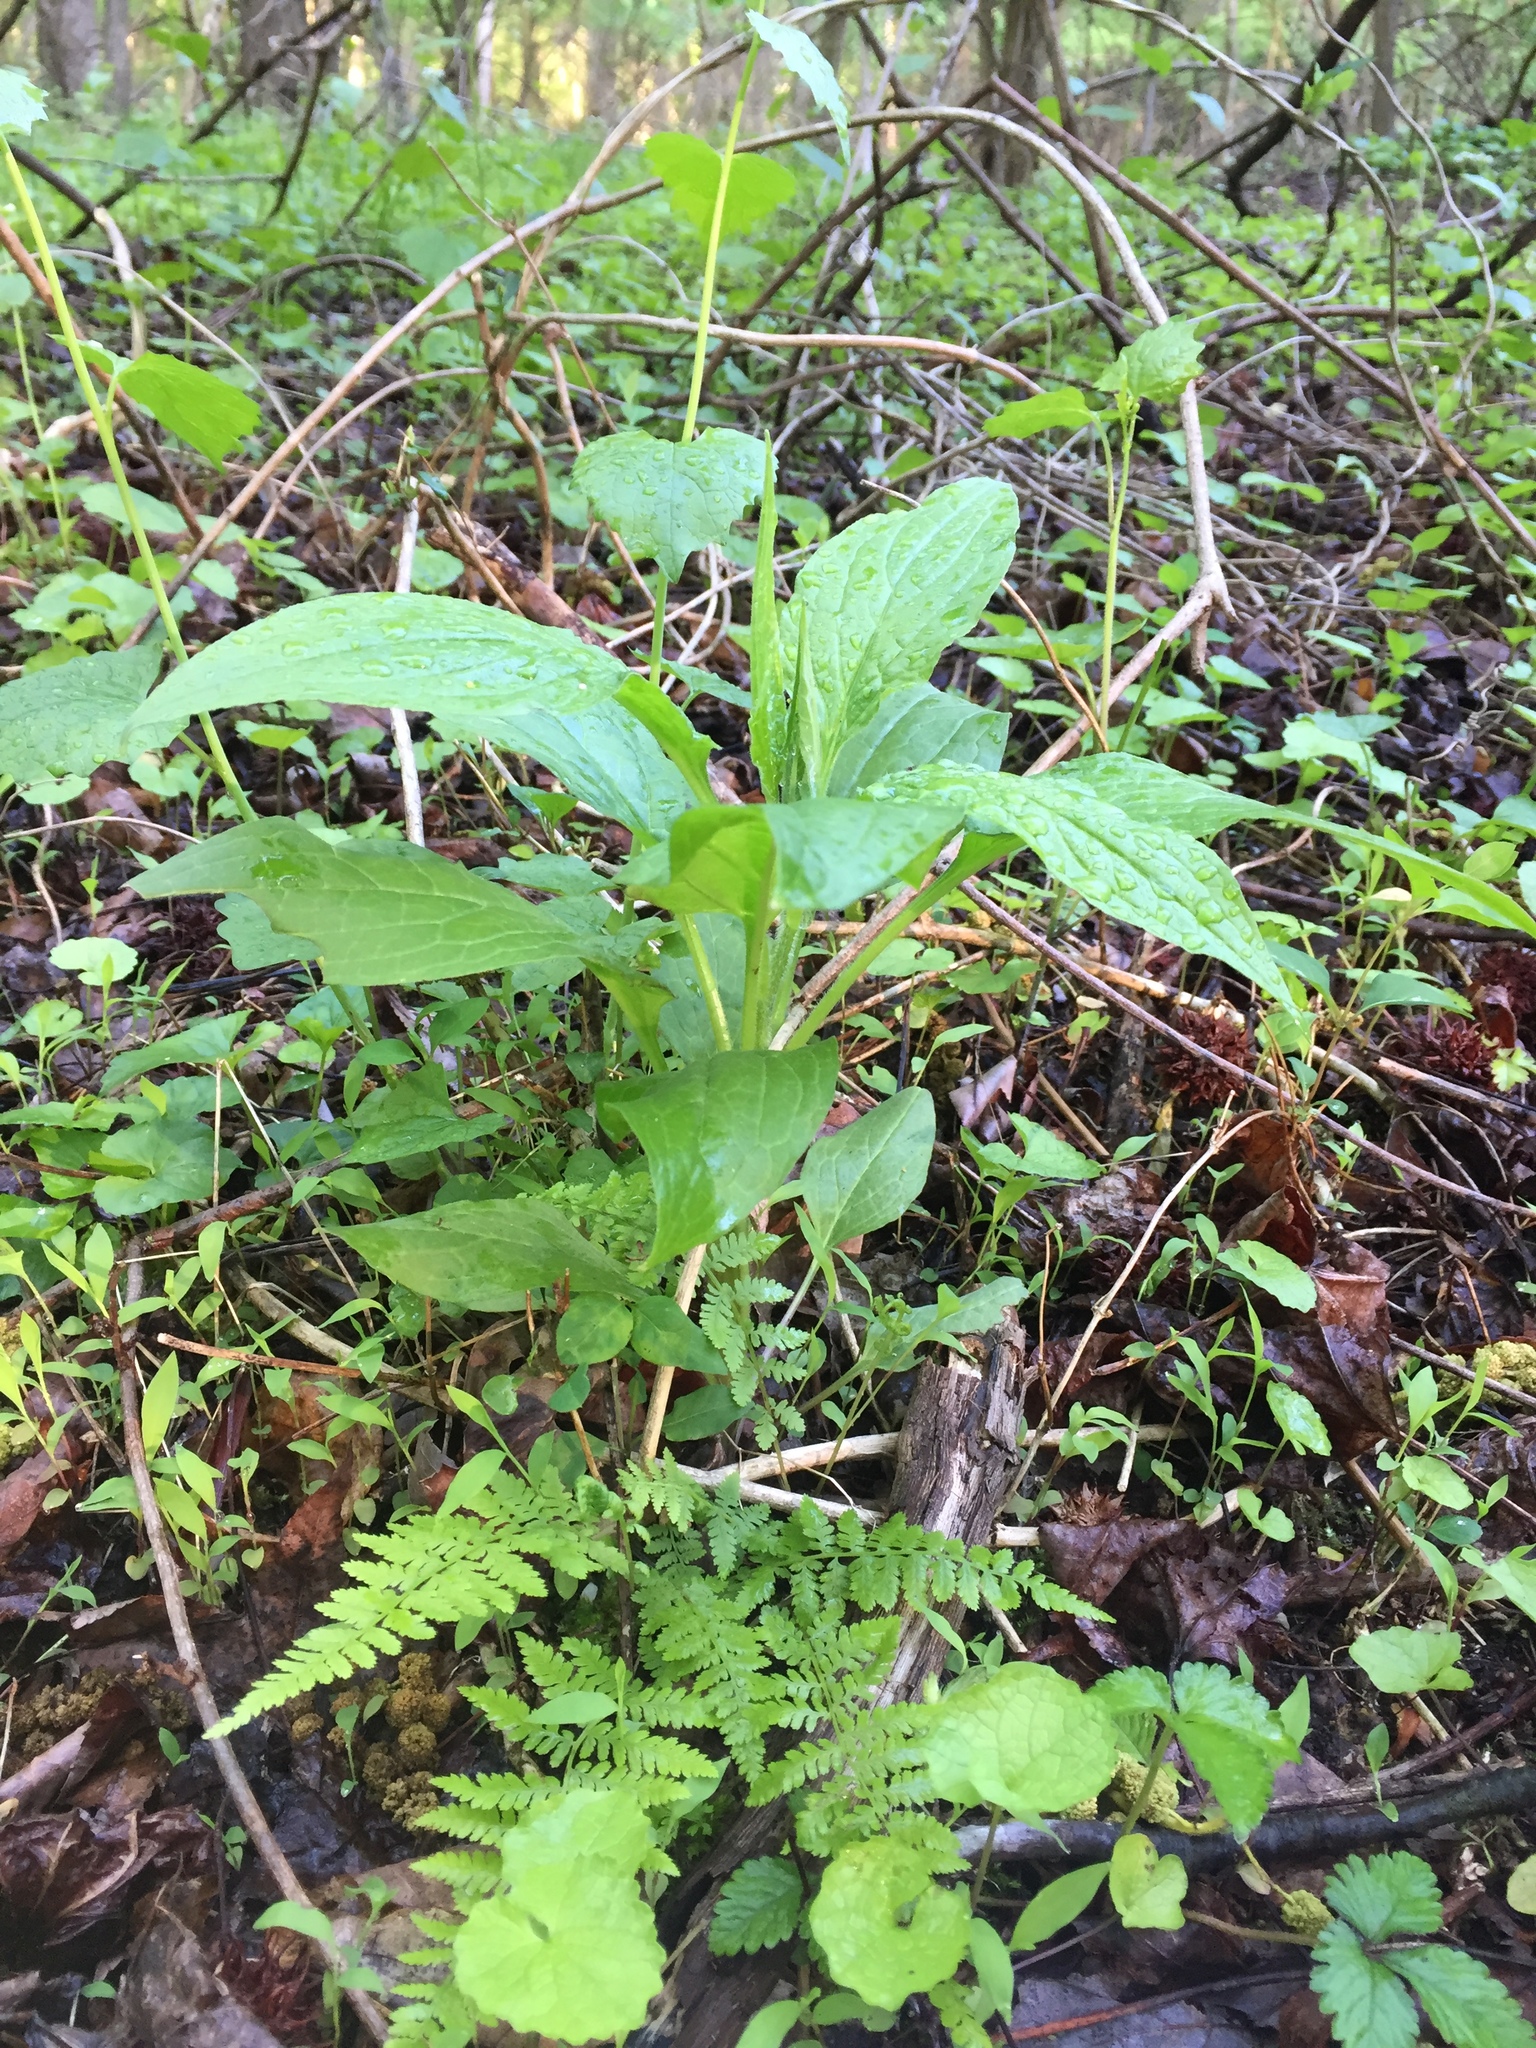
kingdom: Plantae
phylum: Tracheophyta
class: Magnoliopsida
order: Boraginales
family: Boraginaceae
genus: Hackelia
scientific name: Hackelia virginiana
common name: Beggar's-lice
